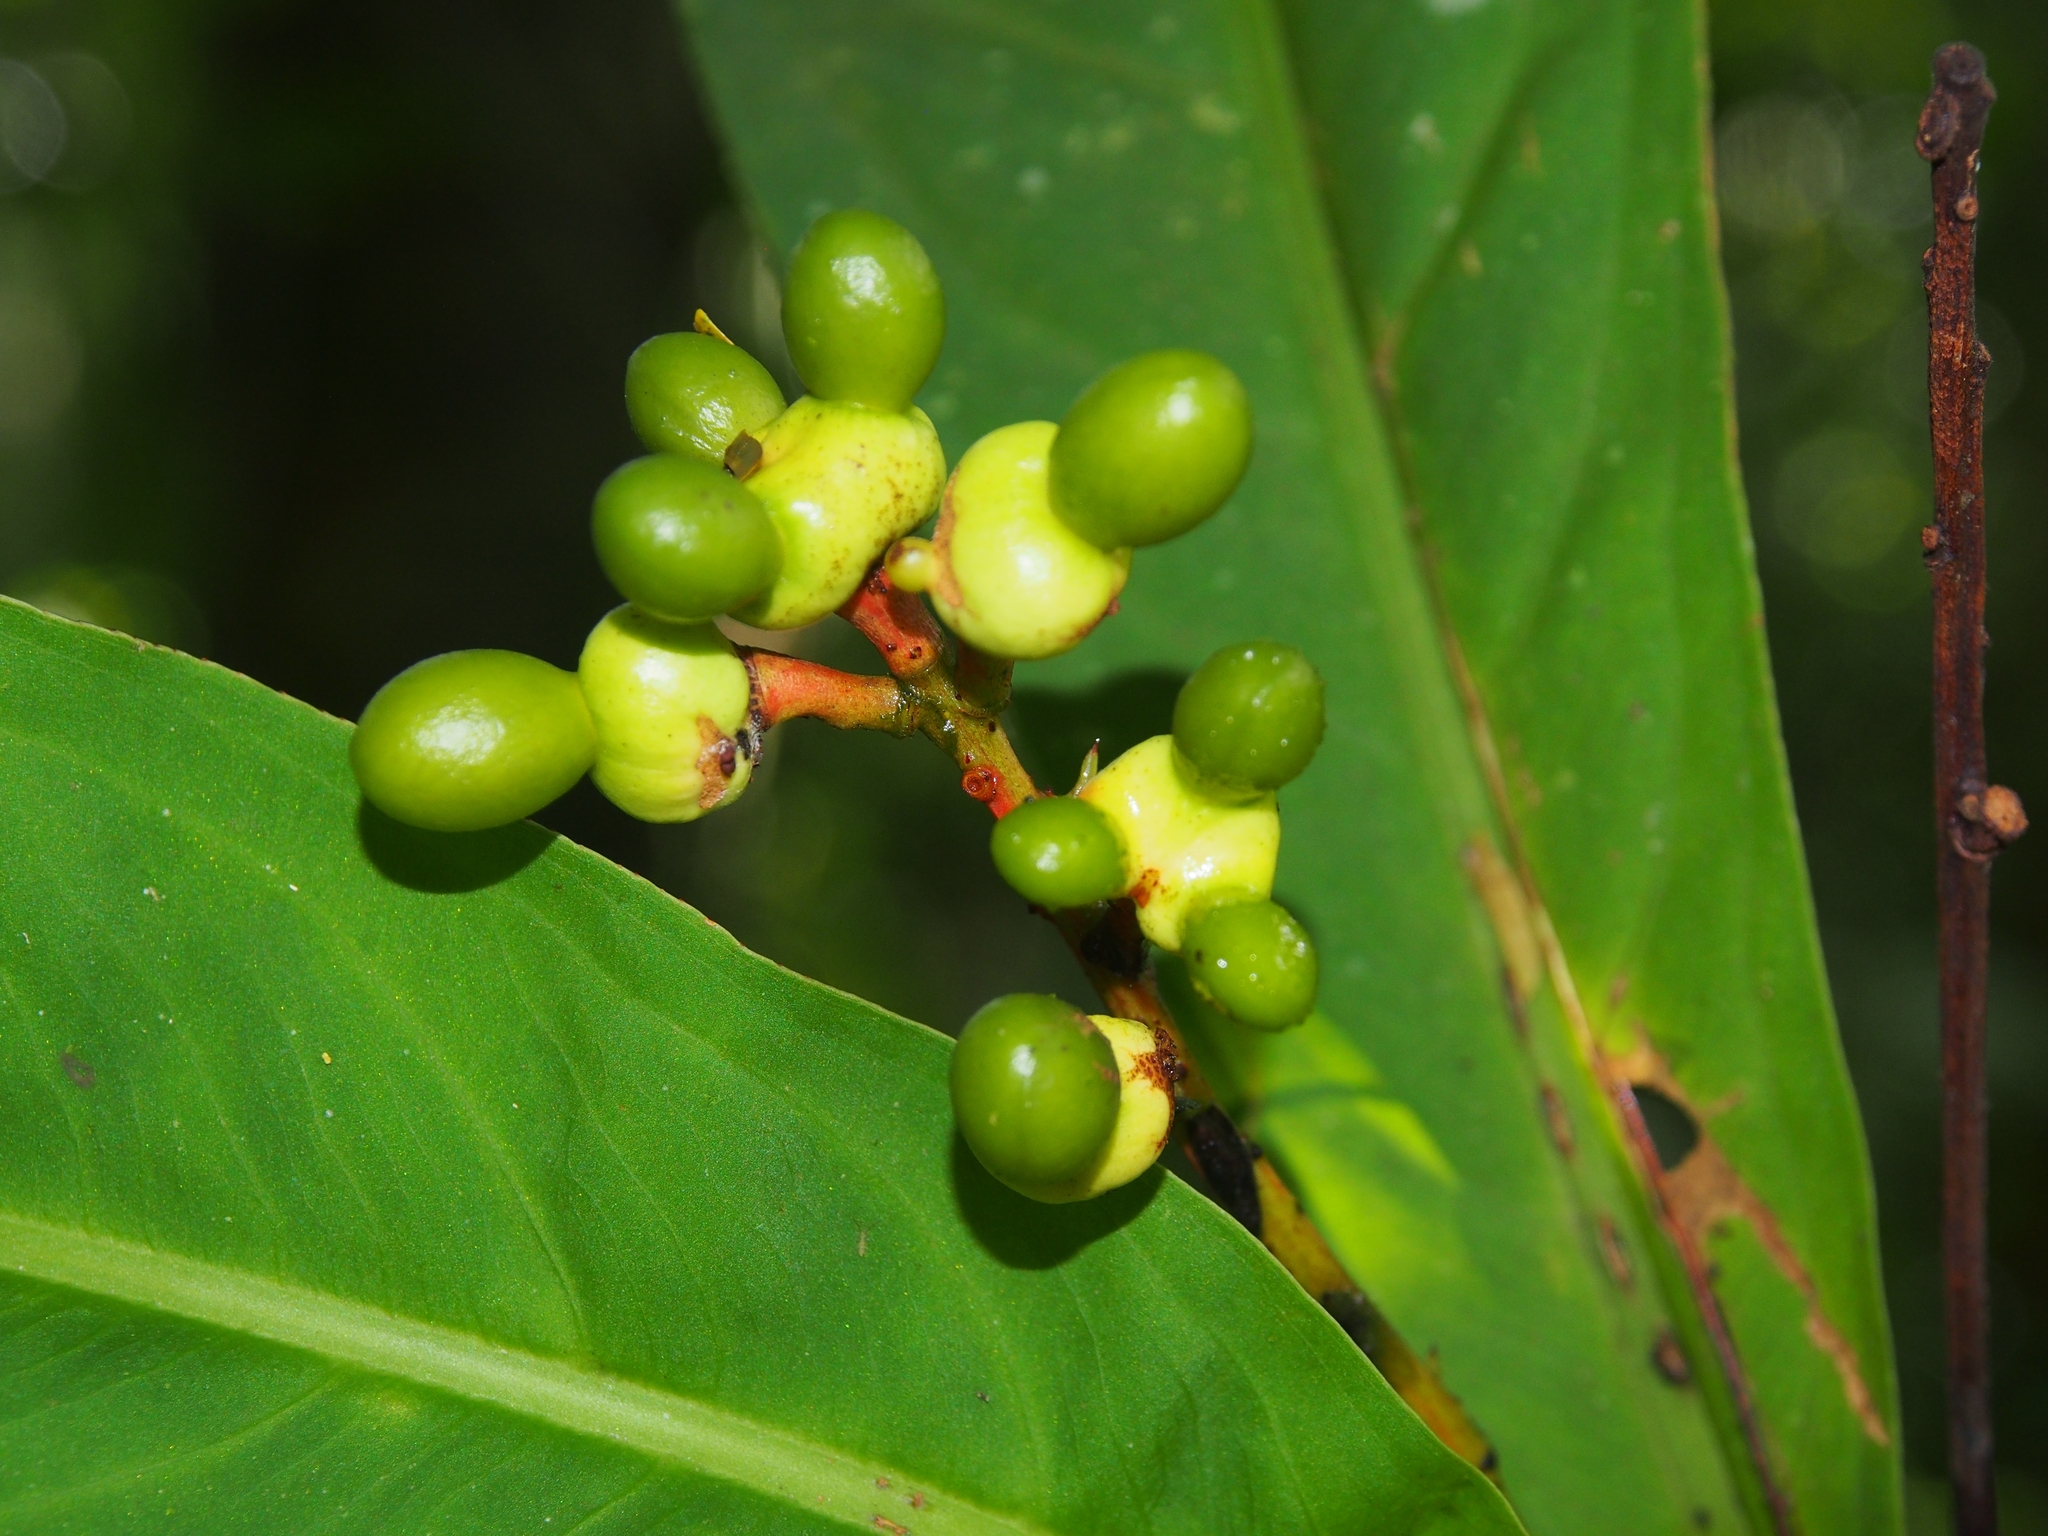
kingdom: Plantae
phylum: Tracheophyta
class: Magnoliopsida
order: Malpighiales
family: Ochnaceae
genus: Ouratea
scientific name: Ouratea crassinervia
